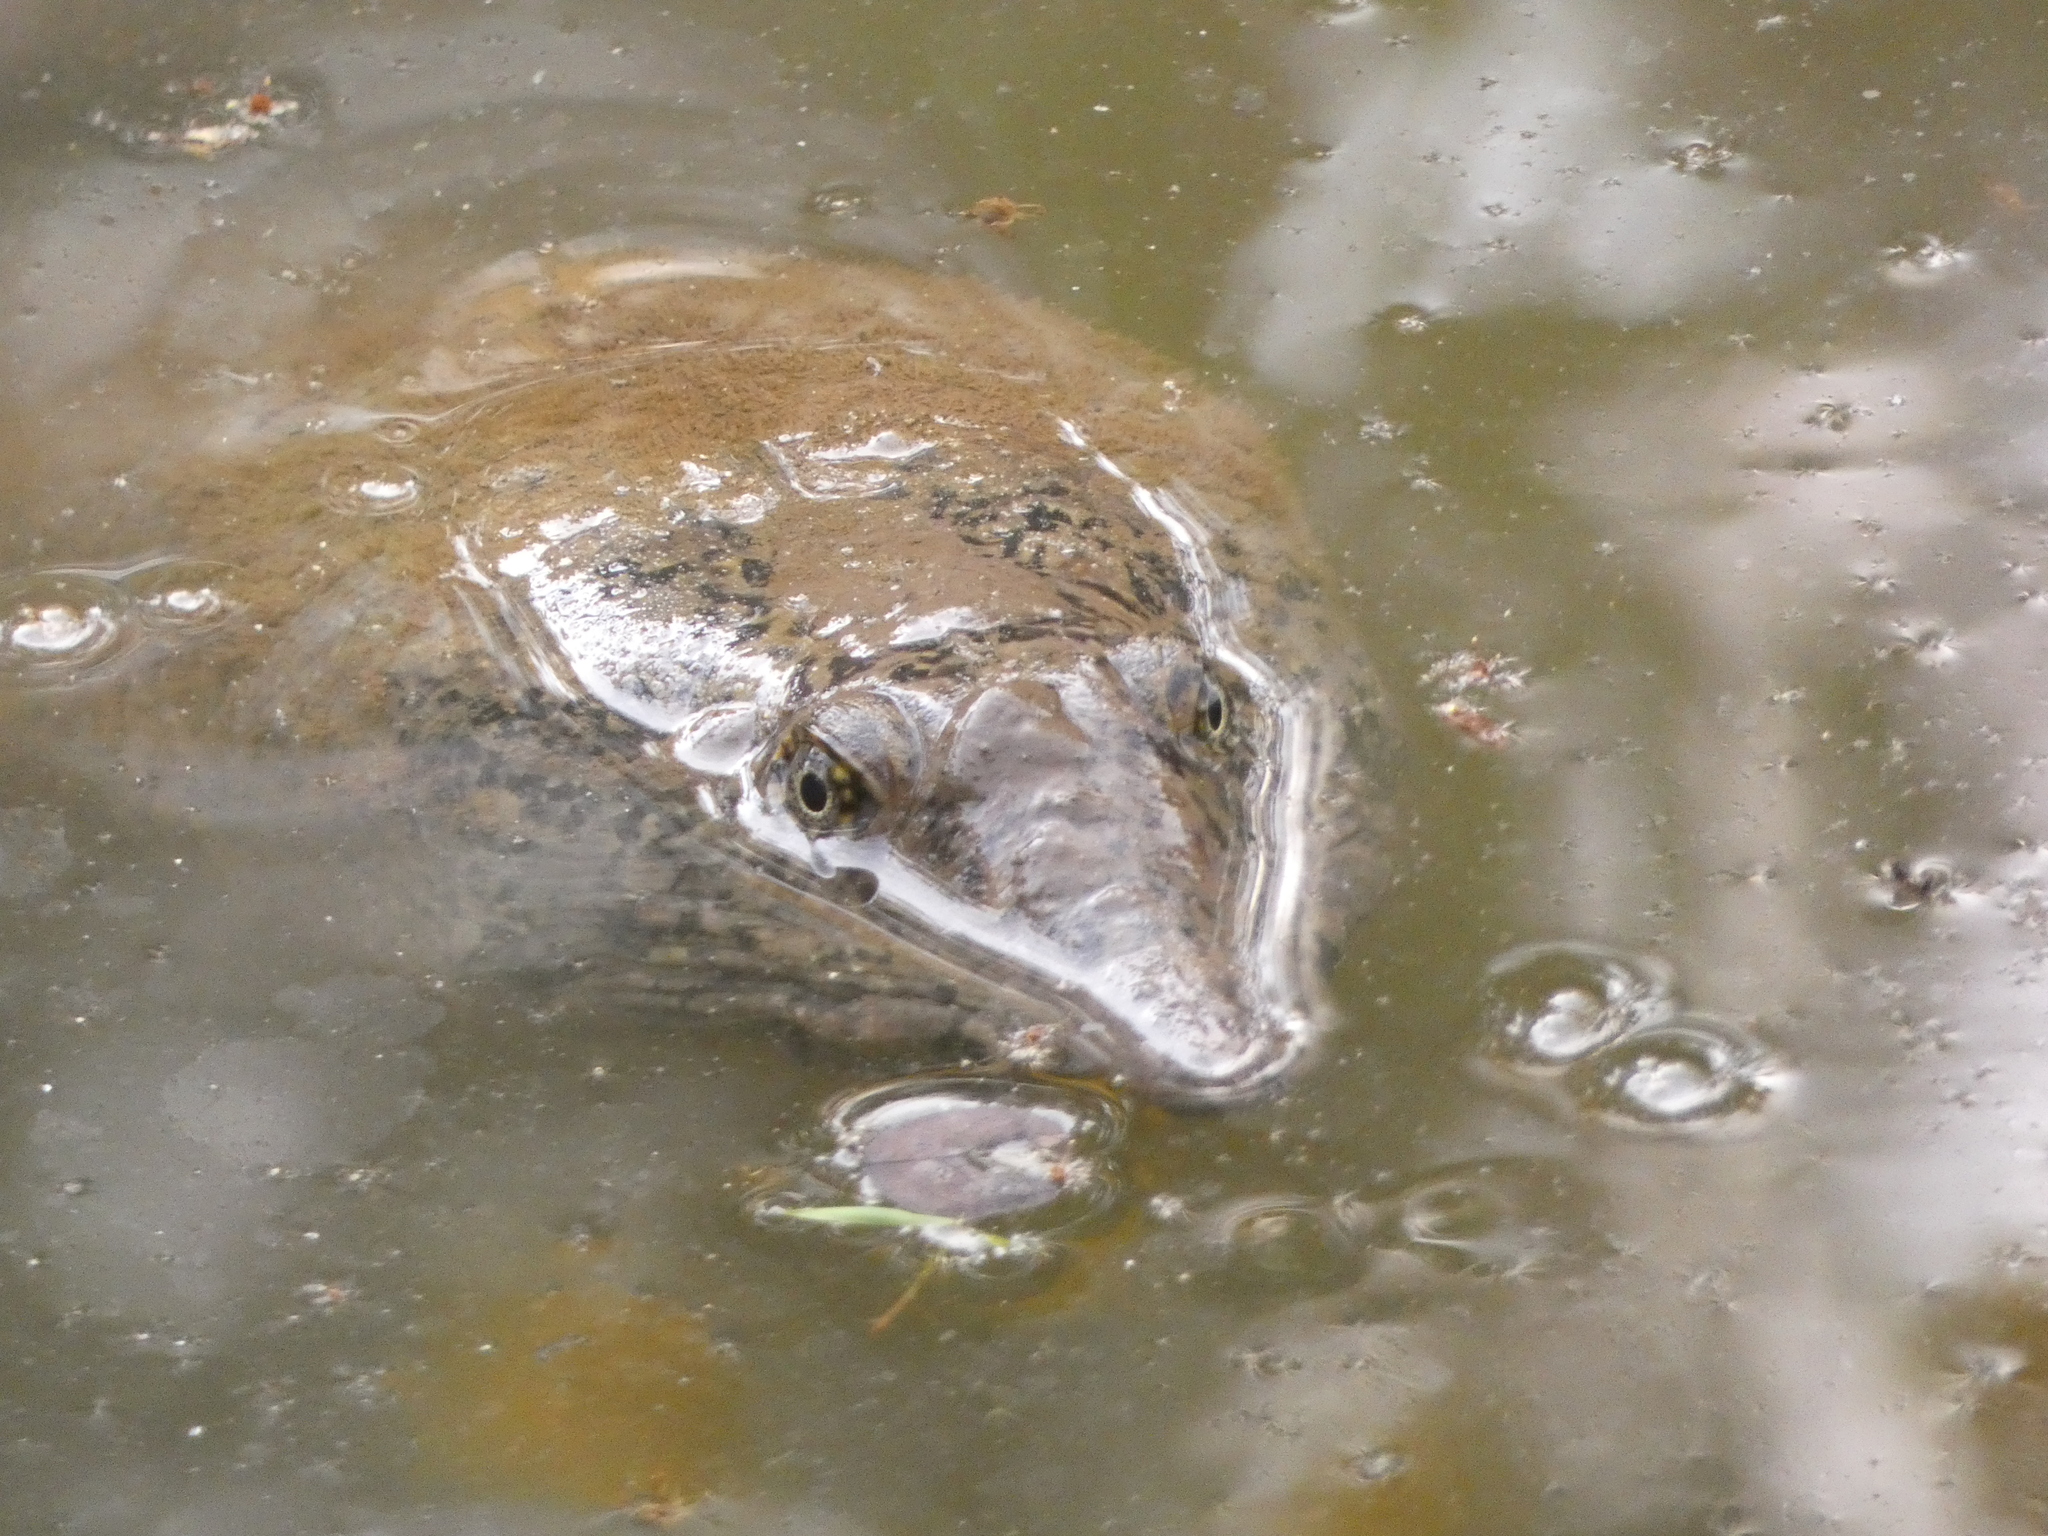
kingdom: Animalia
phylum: Chordata
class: Testudines
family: Trionychidae
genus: Amyda
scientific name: Amyda ornata
